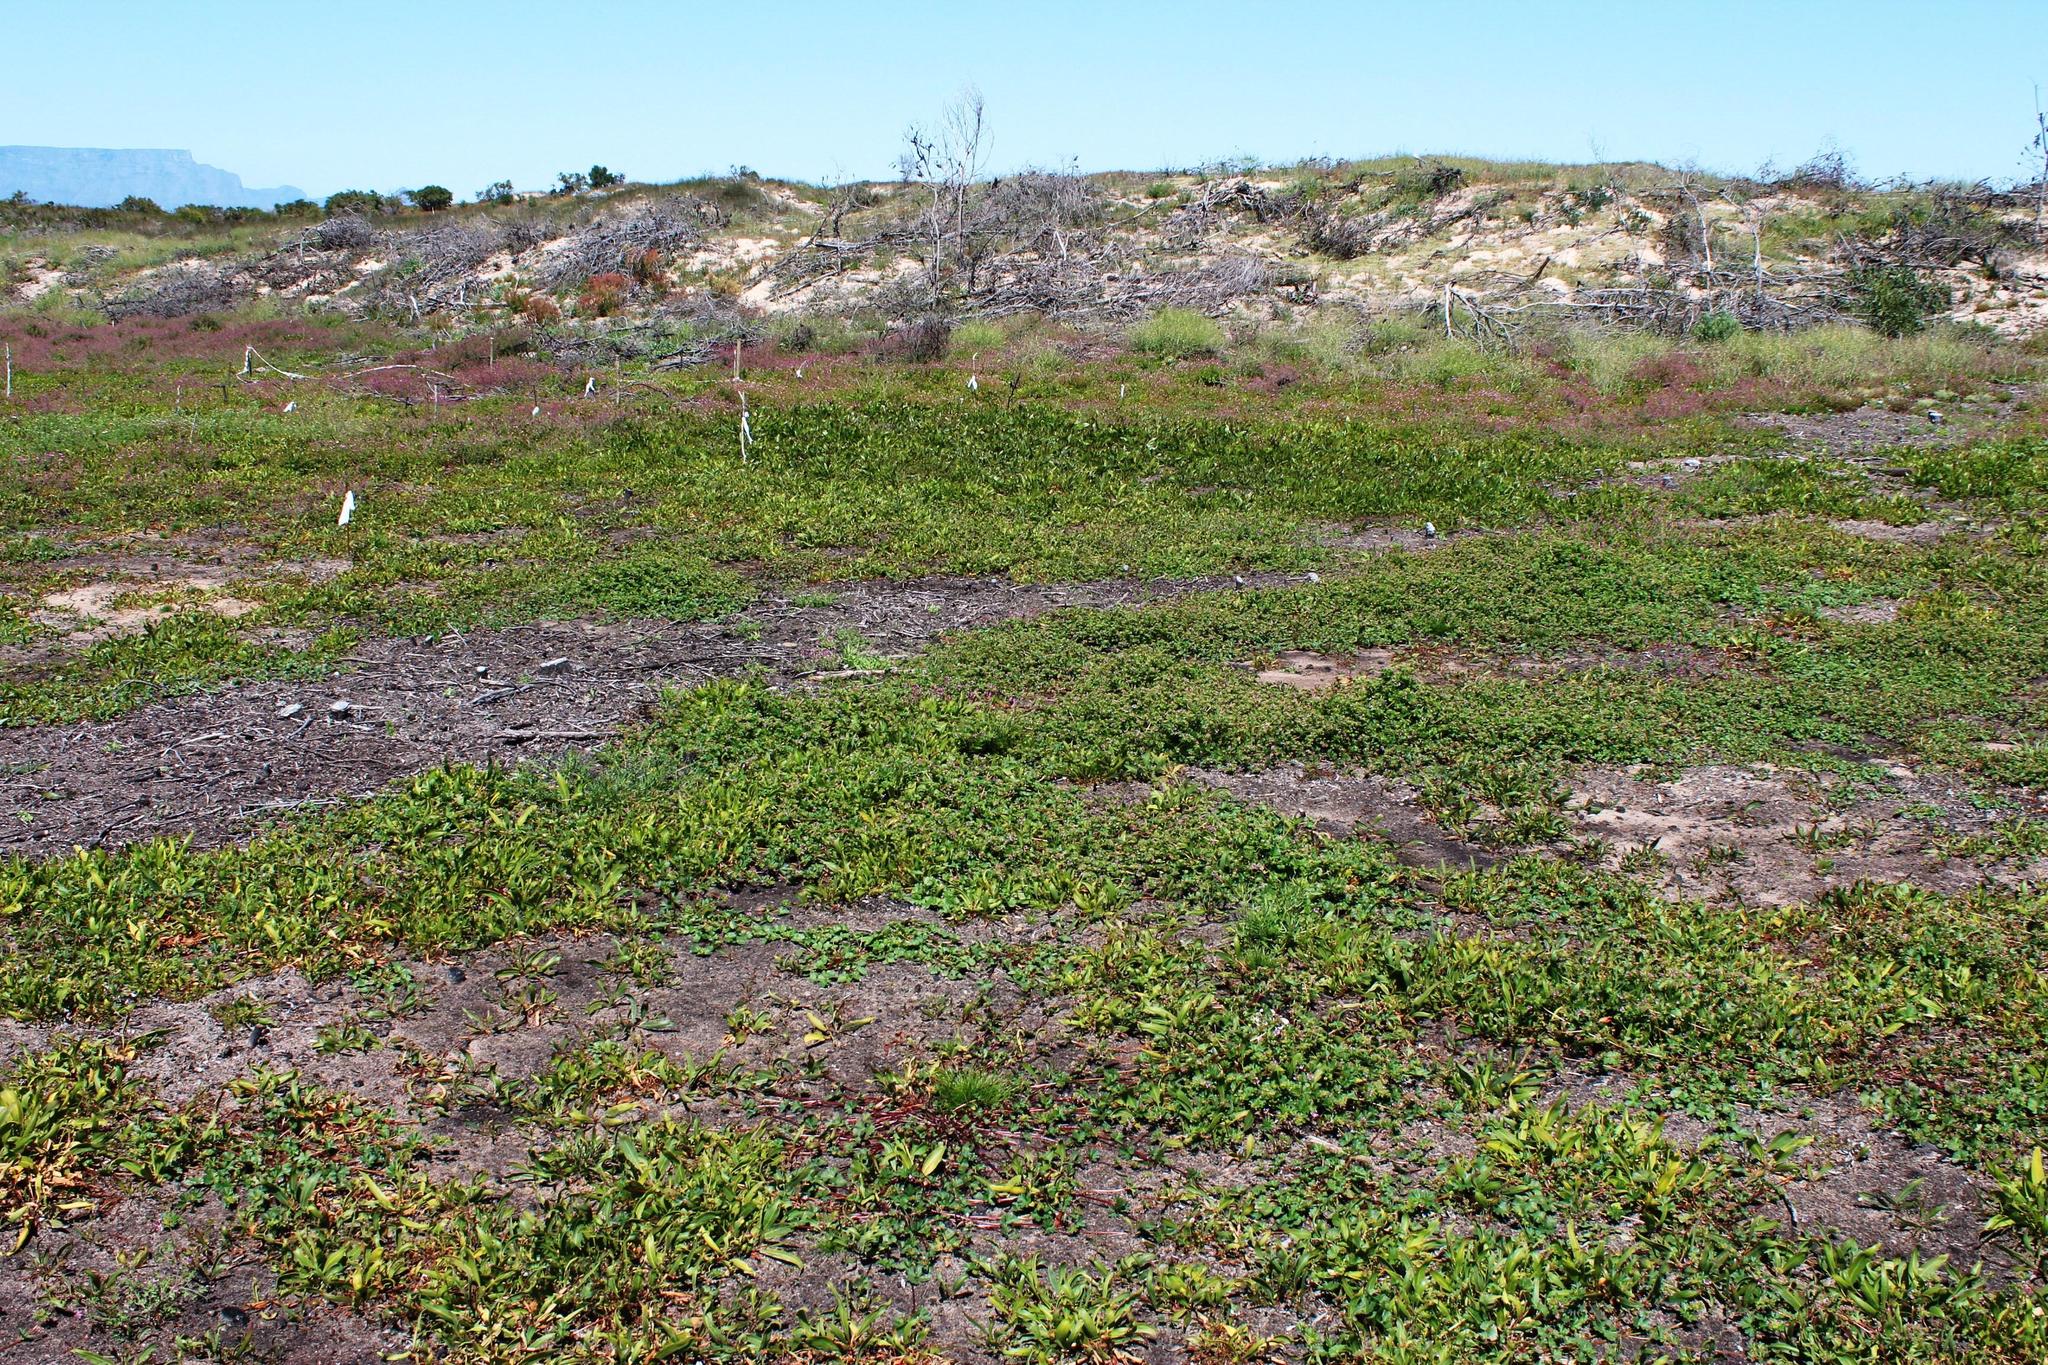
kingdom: Plantae
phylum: Tracheophyta
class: Magnoliopsida
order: Geraniales
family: Geraniaceae
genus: Pelargonium
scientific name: Pelargonium grossularioides
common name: Gooseberry geranium
